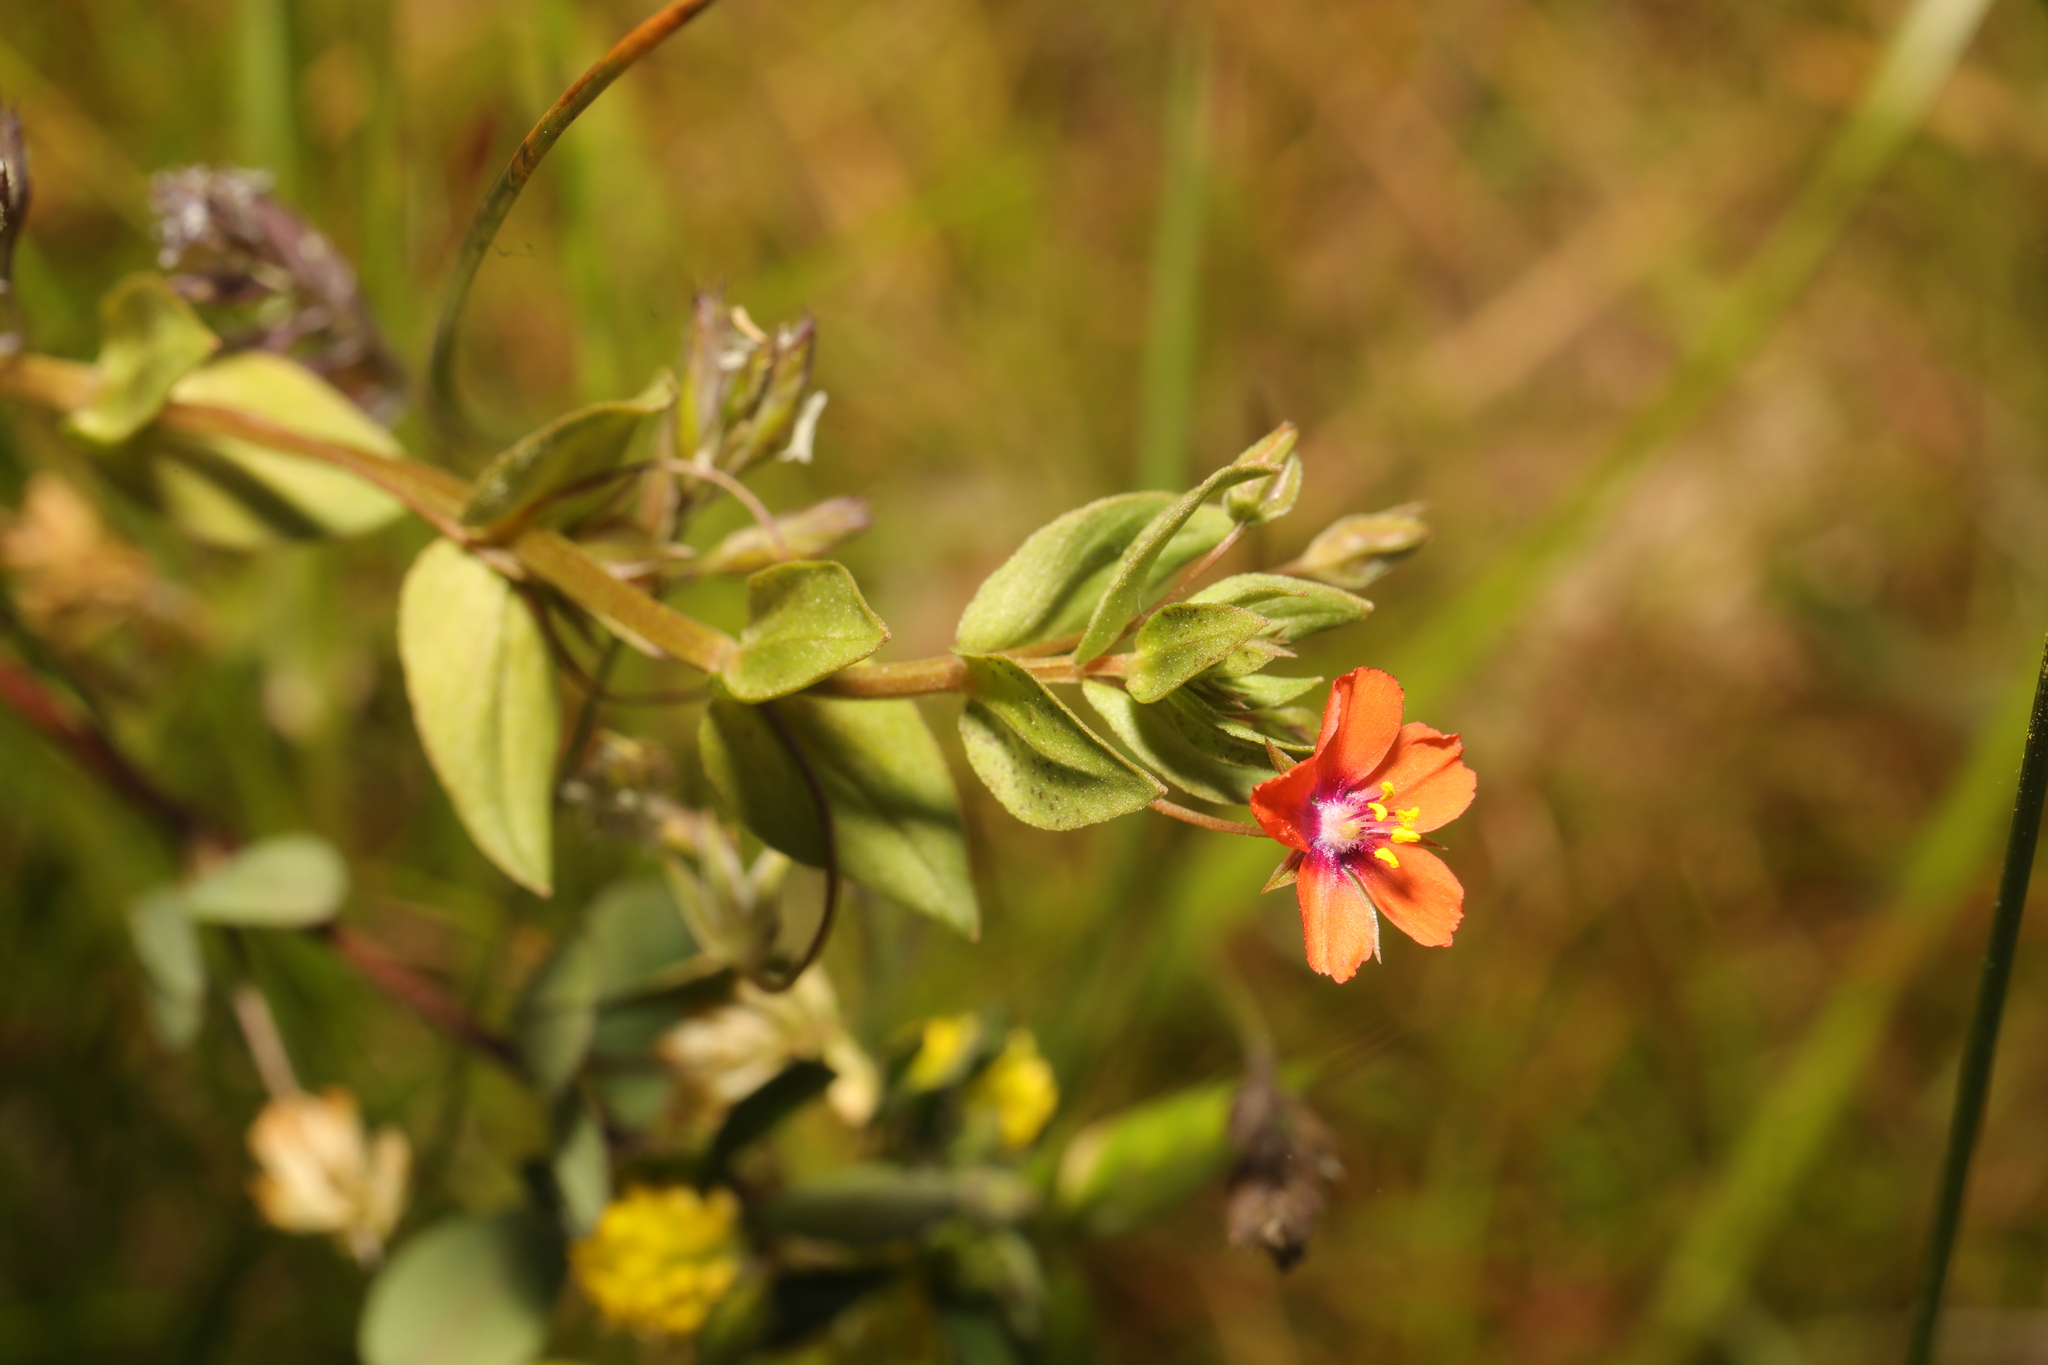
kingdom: Plantae
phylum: Tracheophyta
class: Magnoliopsida
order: Ericales
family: Primulaceae
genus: Lysimachia
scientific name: Lysimachia arvensis
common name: Scarlet pimpernel
